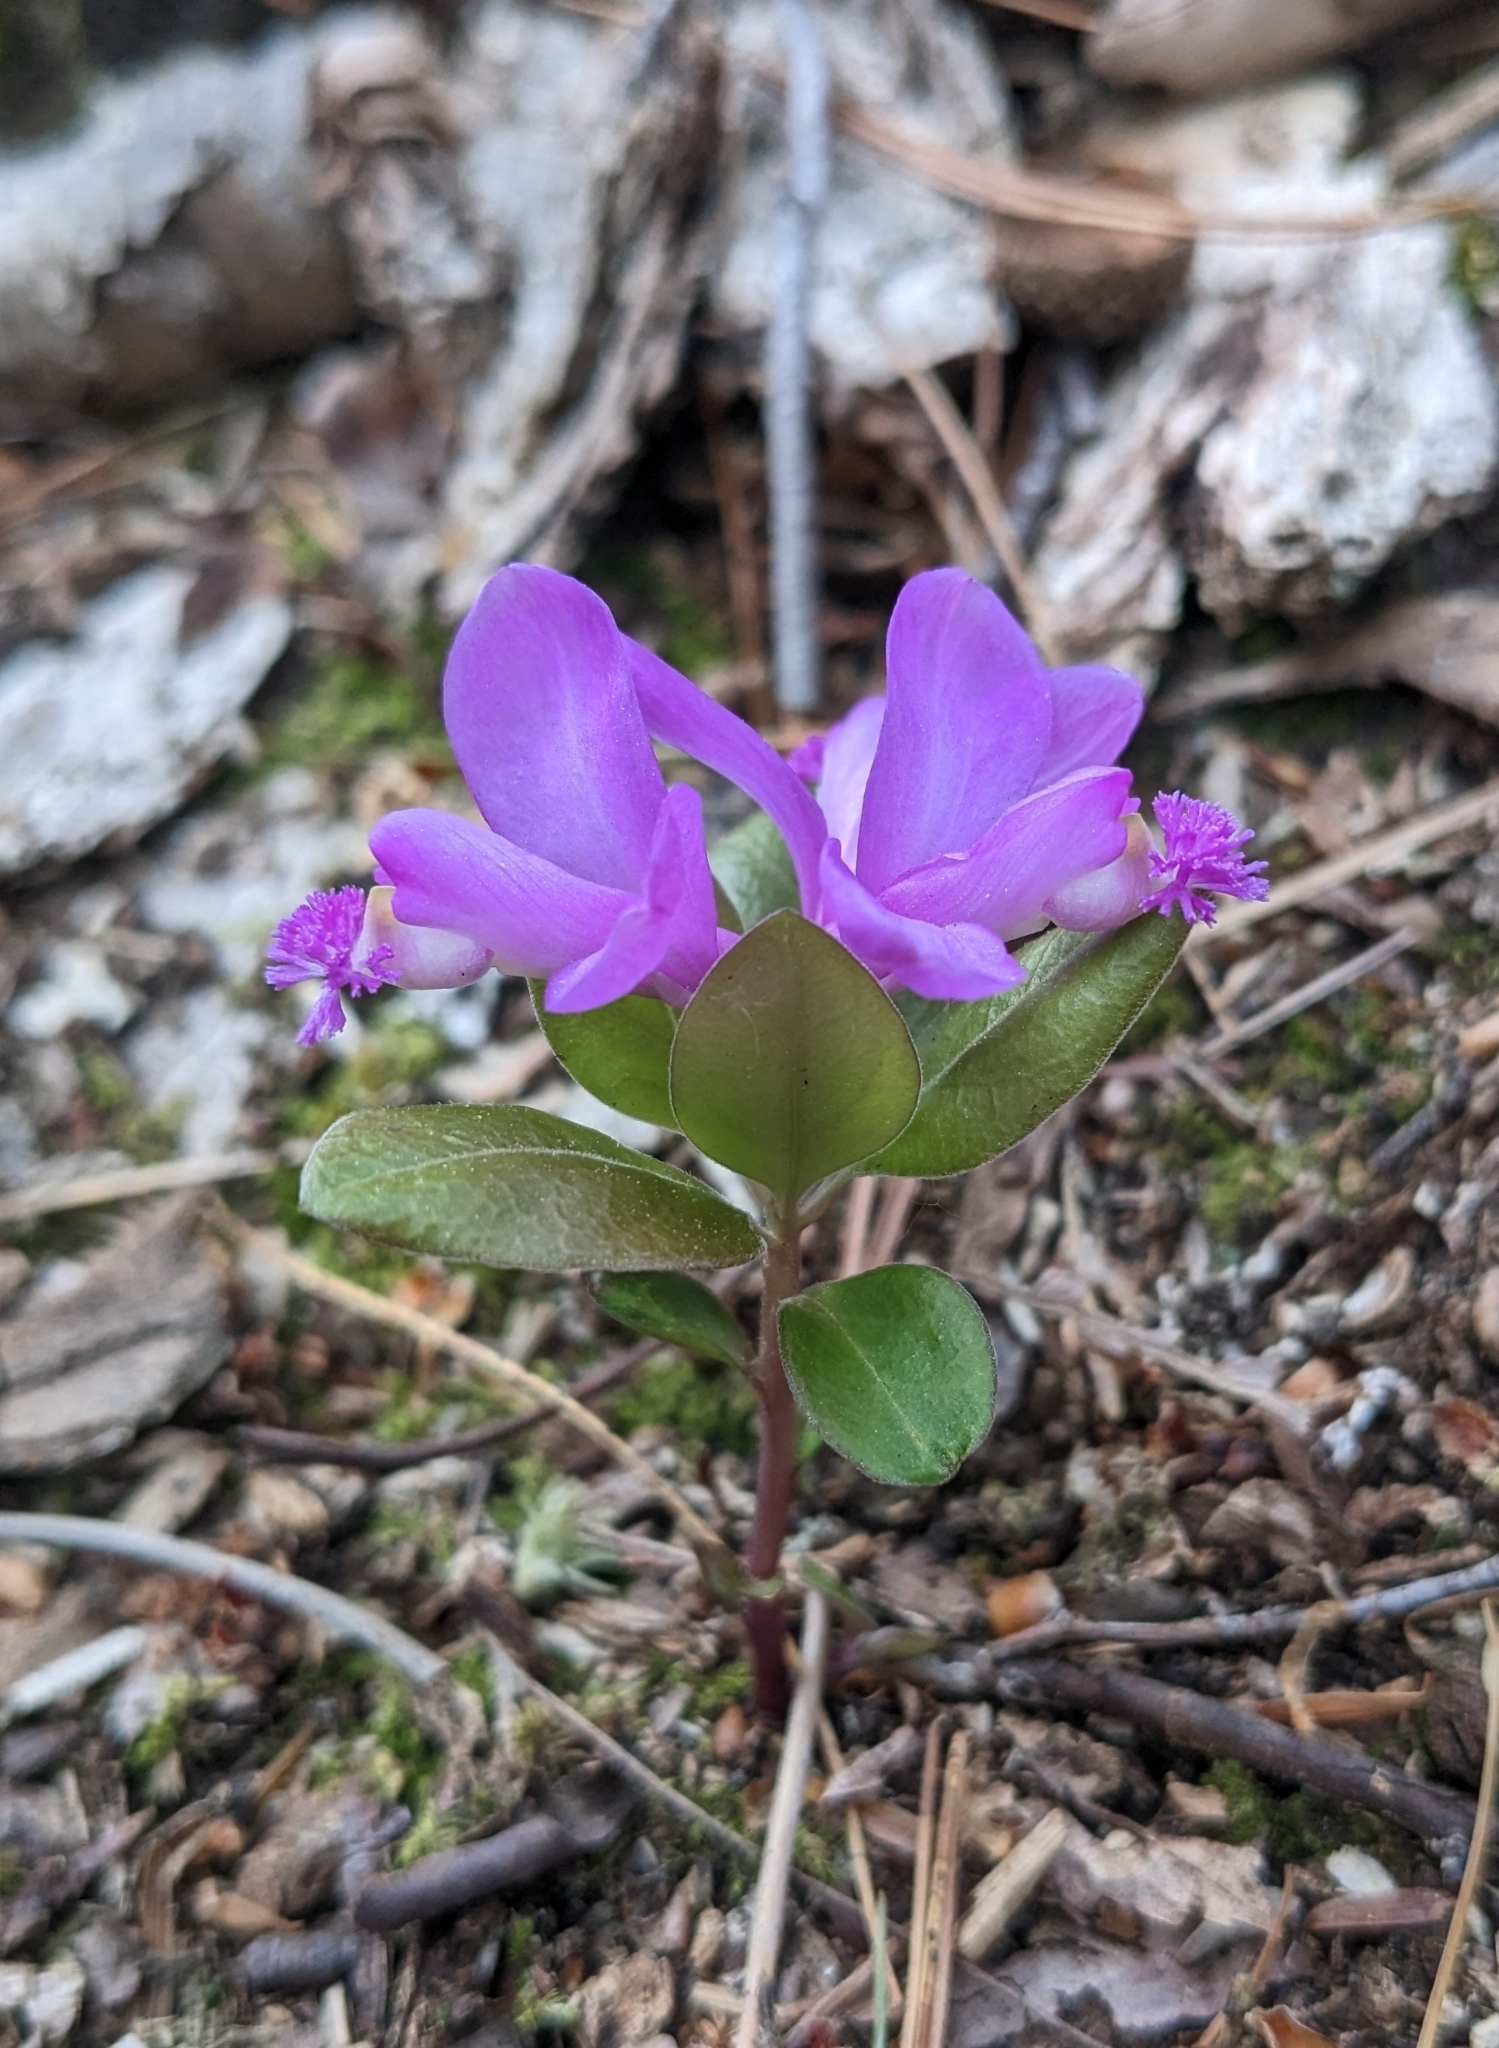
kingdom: Plantae
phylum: Tracheophyta
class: Magnoliopsida
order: Fabales
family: Polygalaceae
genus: Polygaloides
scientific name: Polygaloides paucifolia
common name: Bird-on-the-wing
